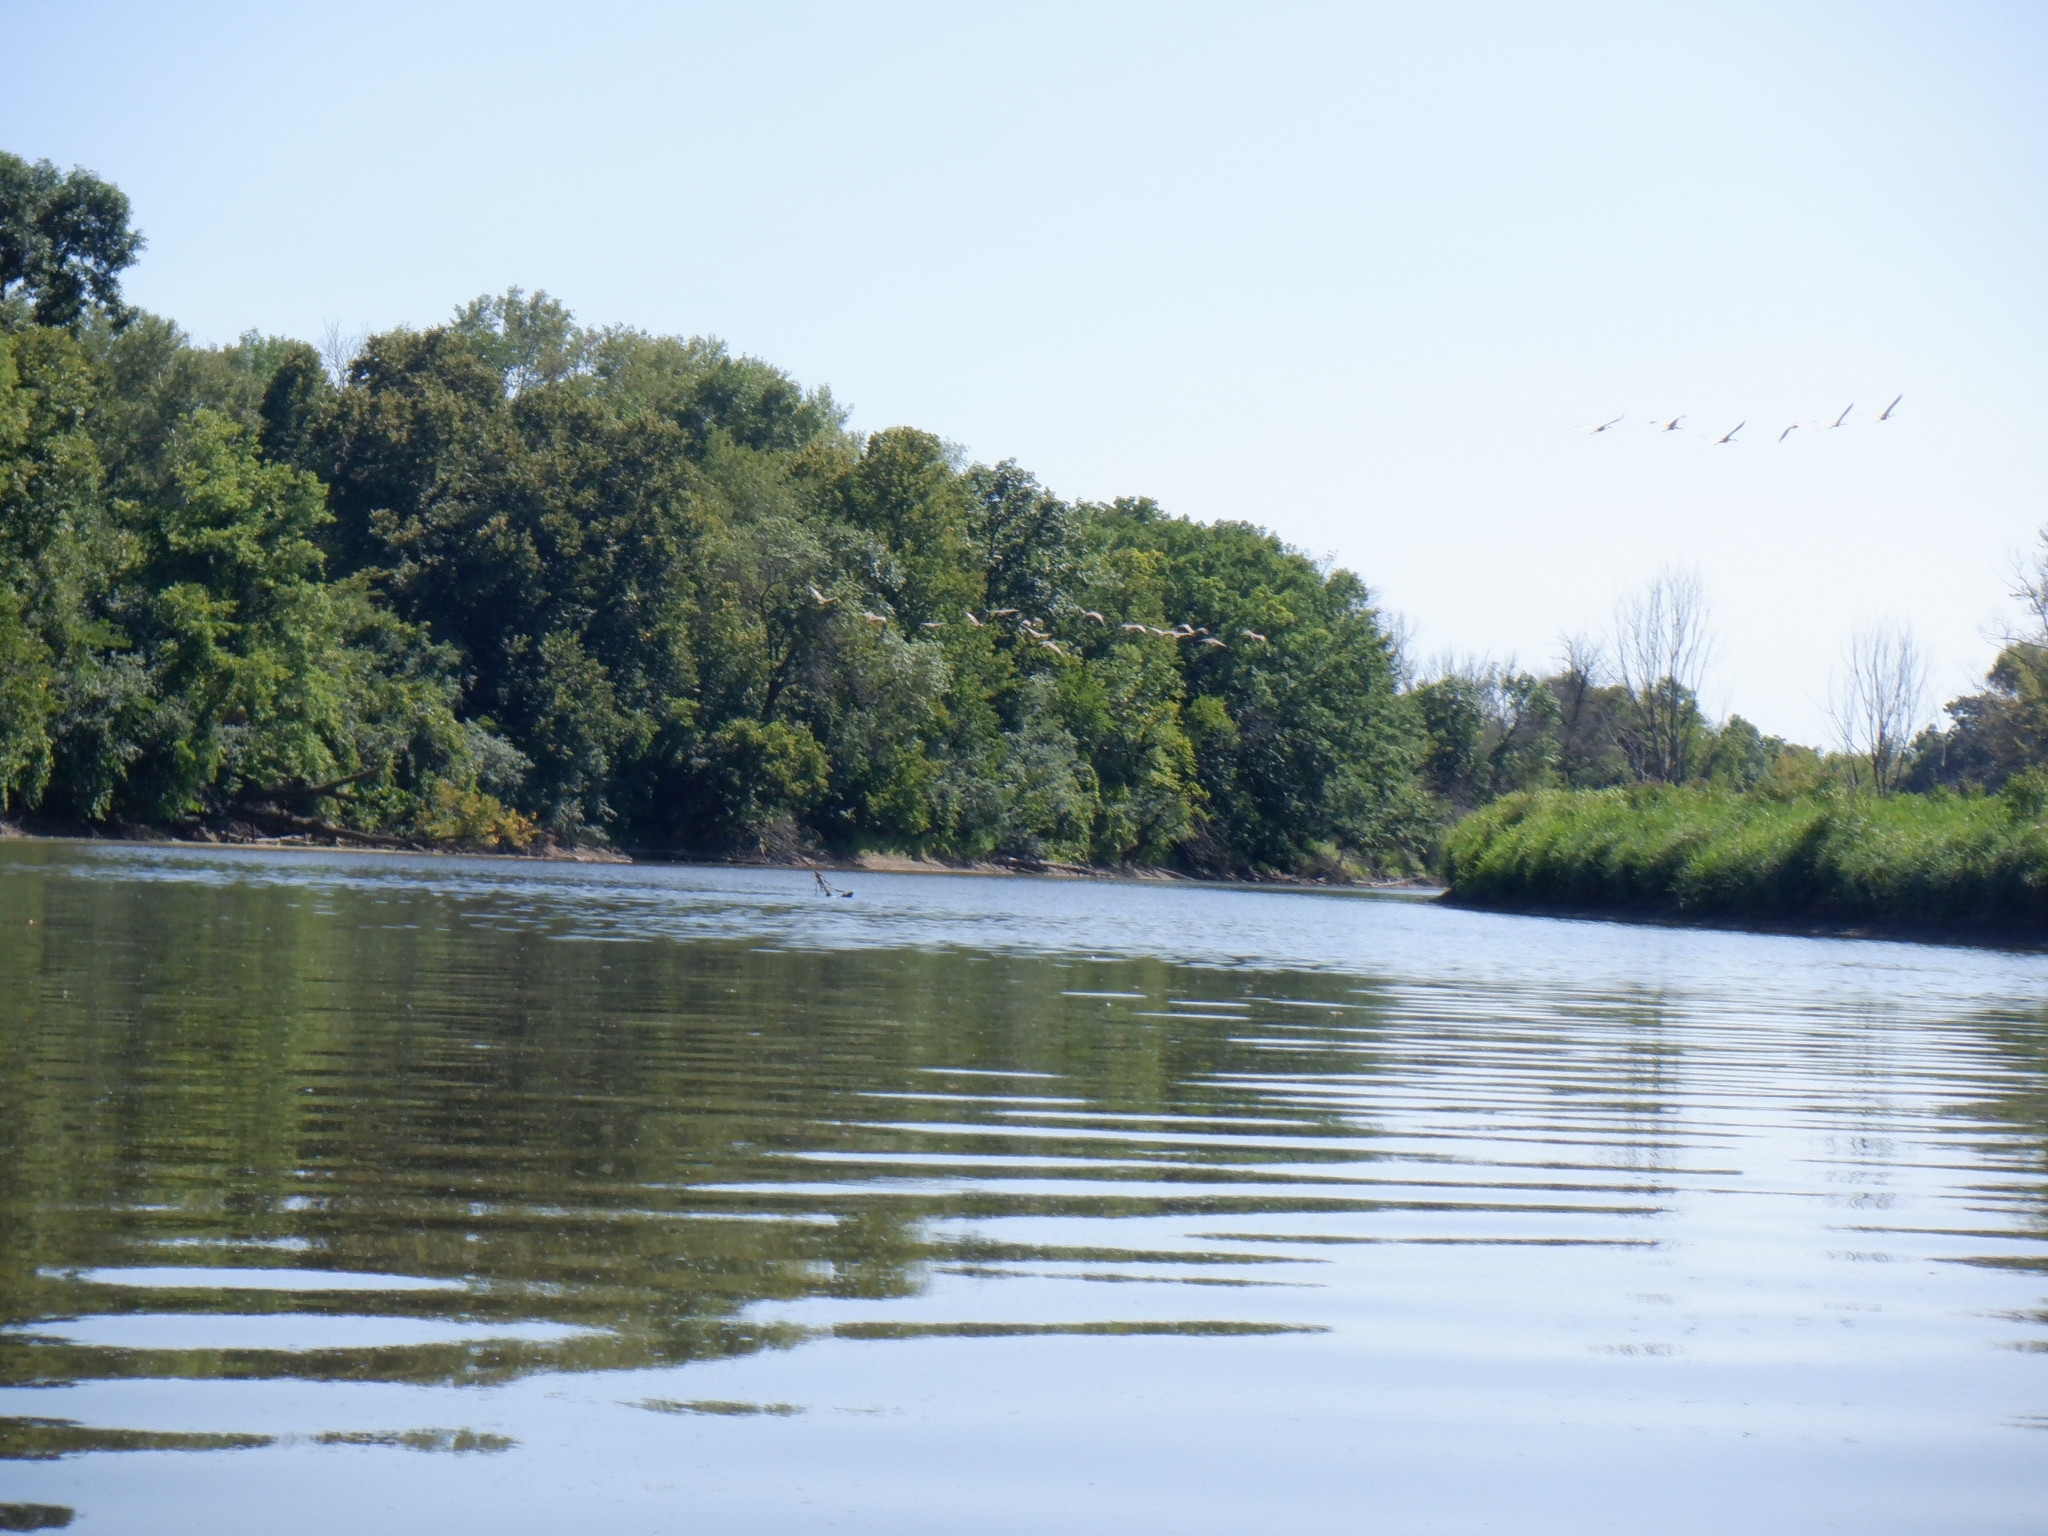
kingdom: Animalia
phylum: Chordata
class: Aves
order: Anseriformes
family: Anatidae
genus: Branta
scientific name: Branta canadensis
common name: Canada goose
